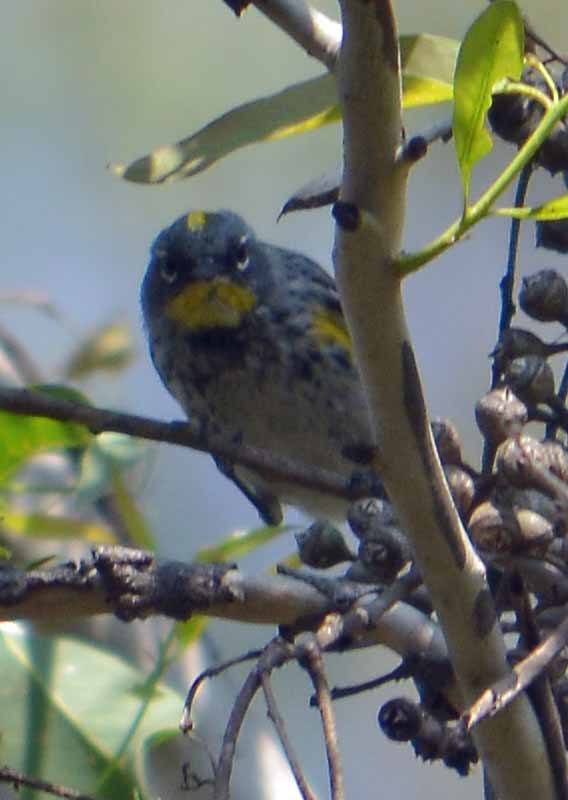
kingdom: Animalia
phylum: Chordata
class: Aves
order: Passeriformes
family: Parulidae
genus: Setophaga
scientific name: Setophaga auduboni
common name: Audubon's warbler
